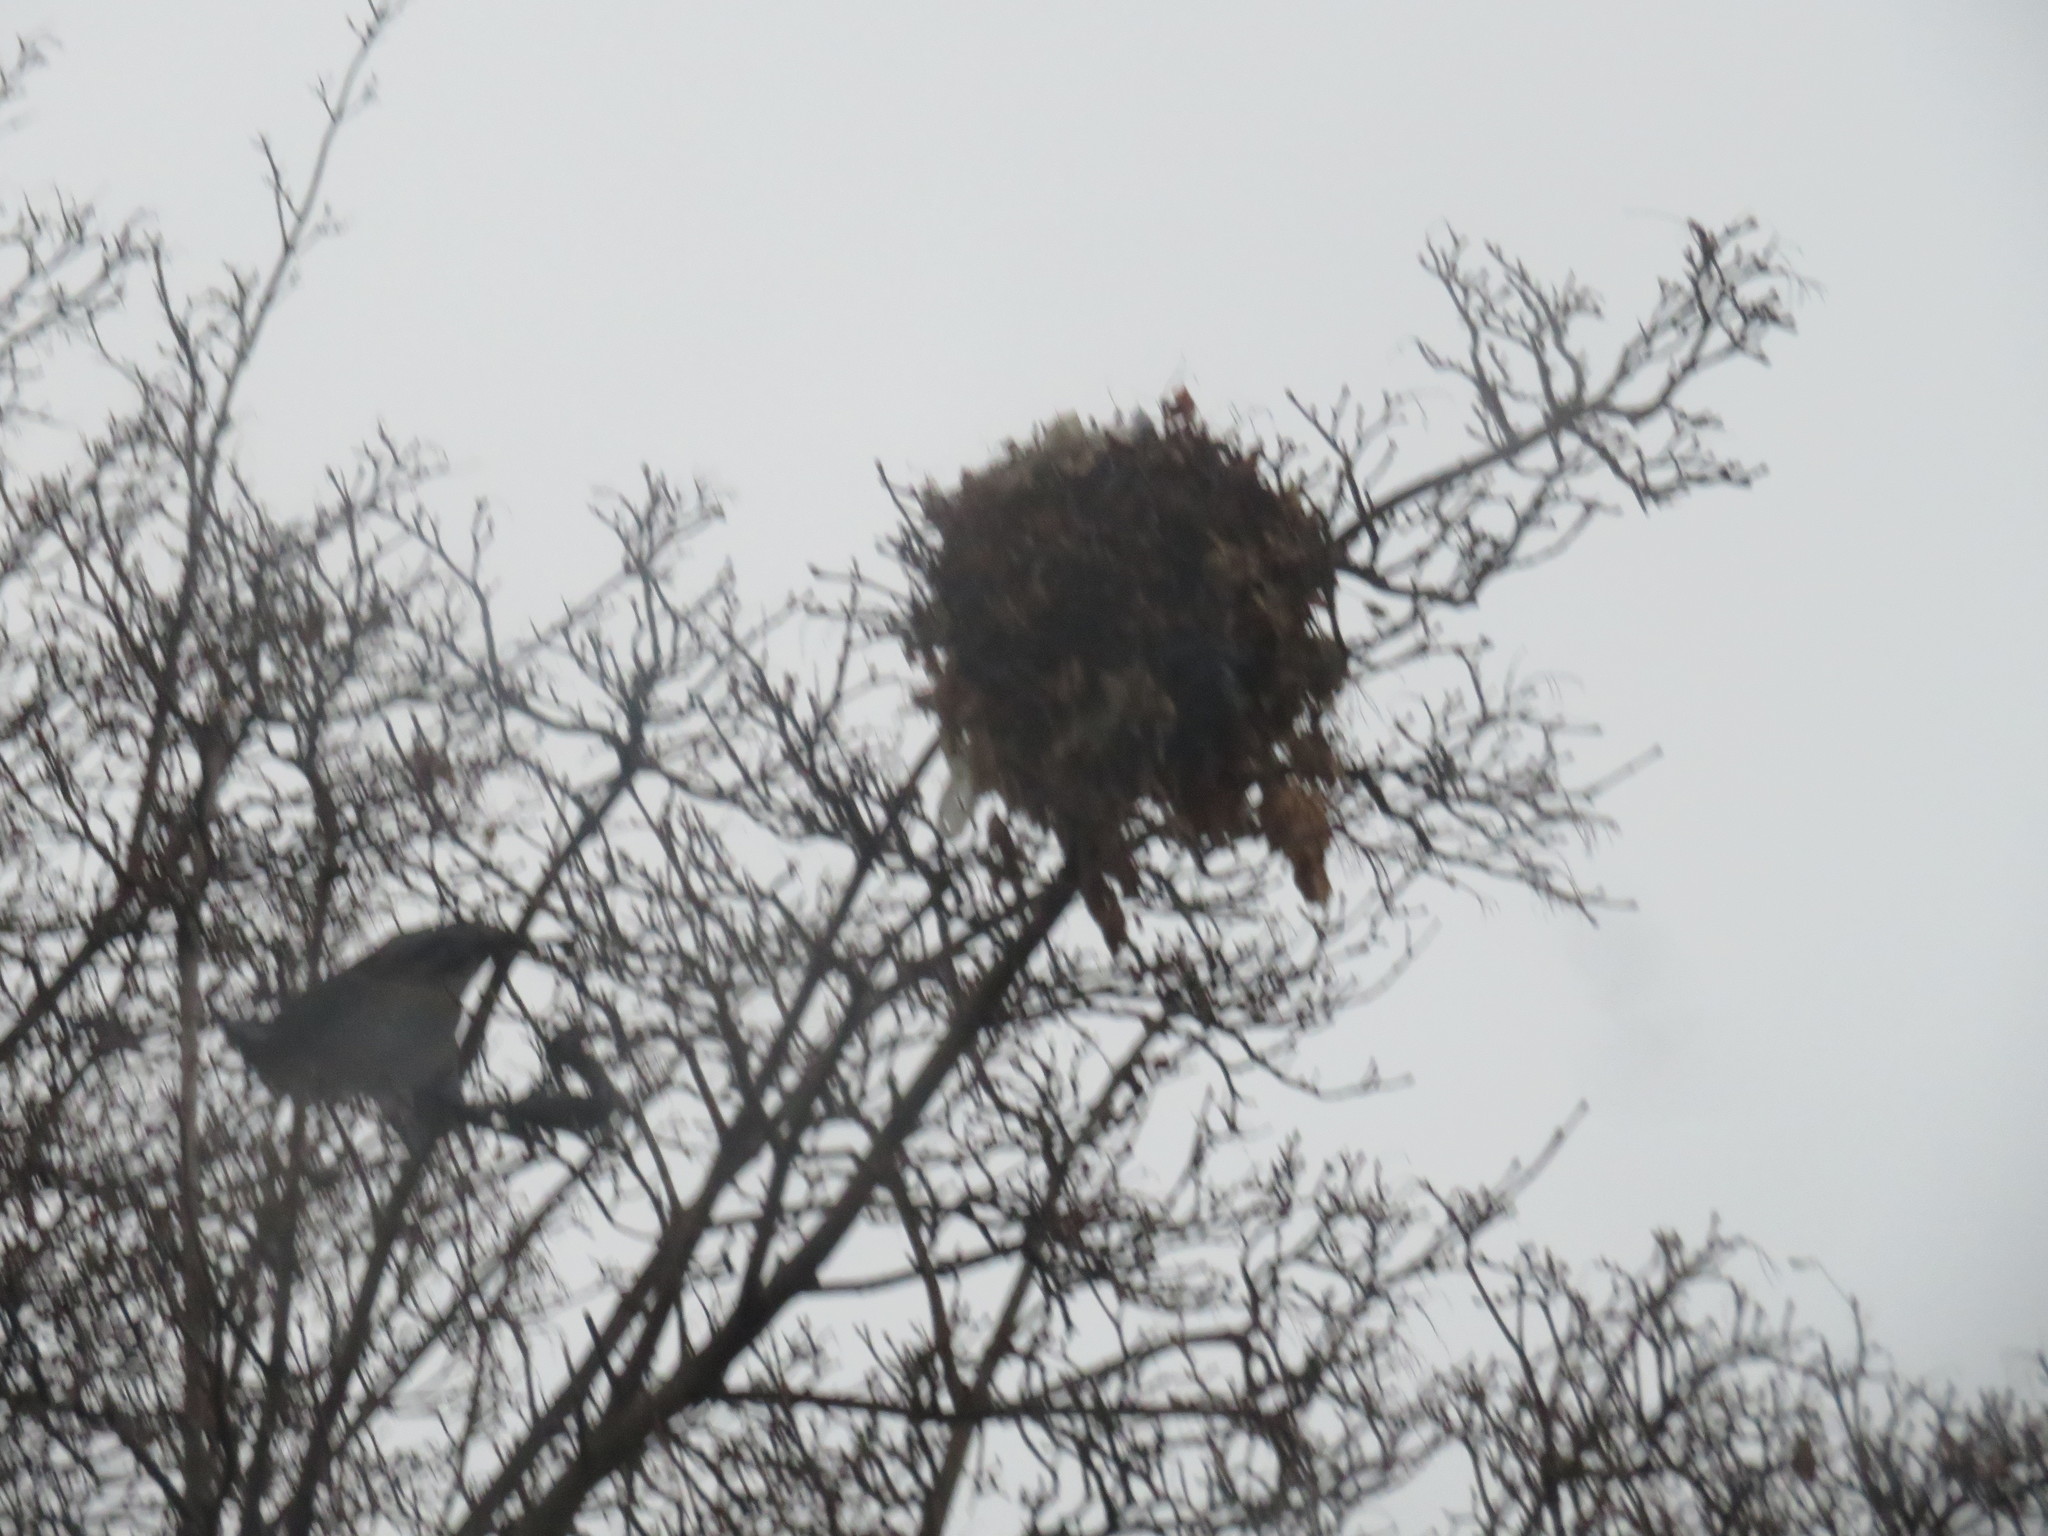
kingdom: Animalia
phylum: Chordata
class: Mammalia
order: Rodentia
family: Sciuridae
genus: Sciurus
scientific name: Sciurus carolinensis
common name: Eastern gray squirrel
